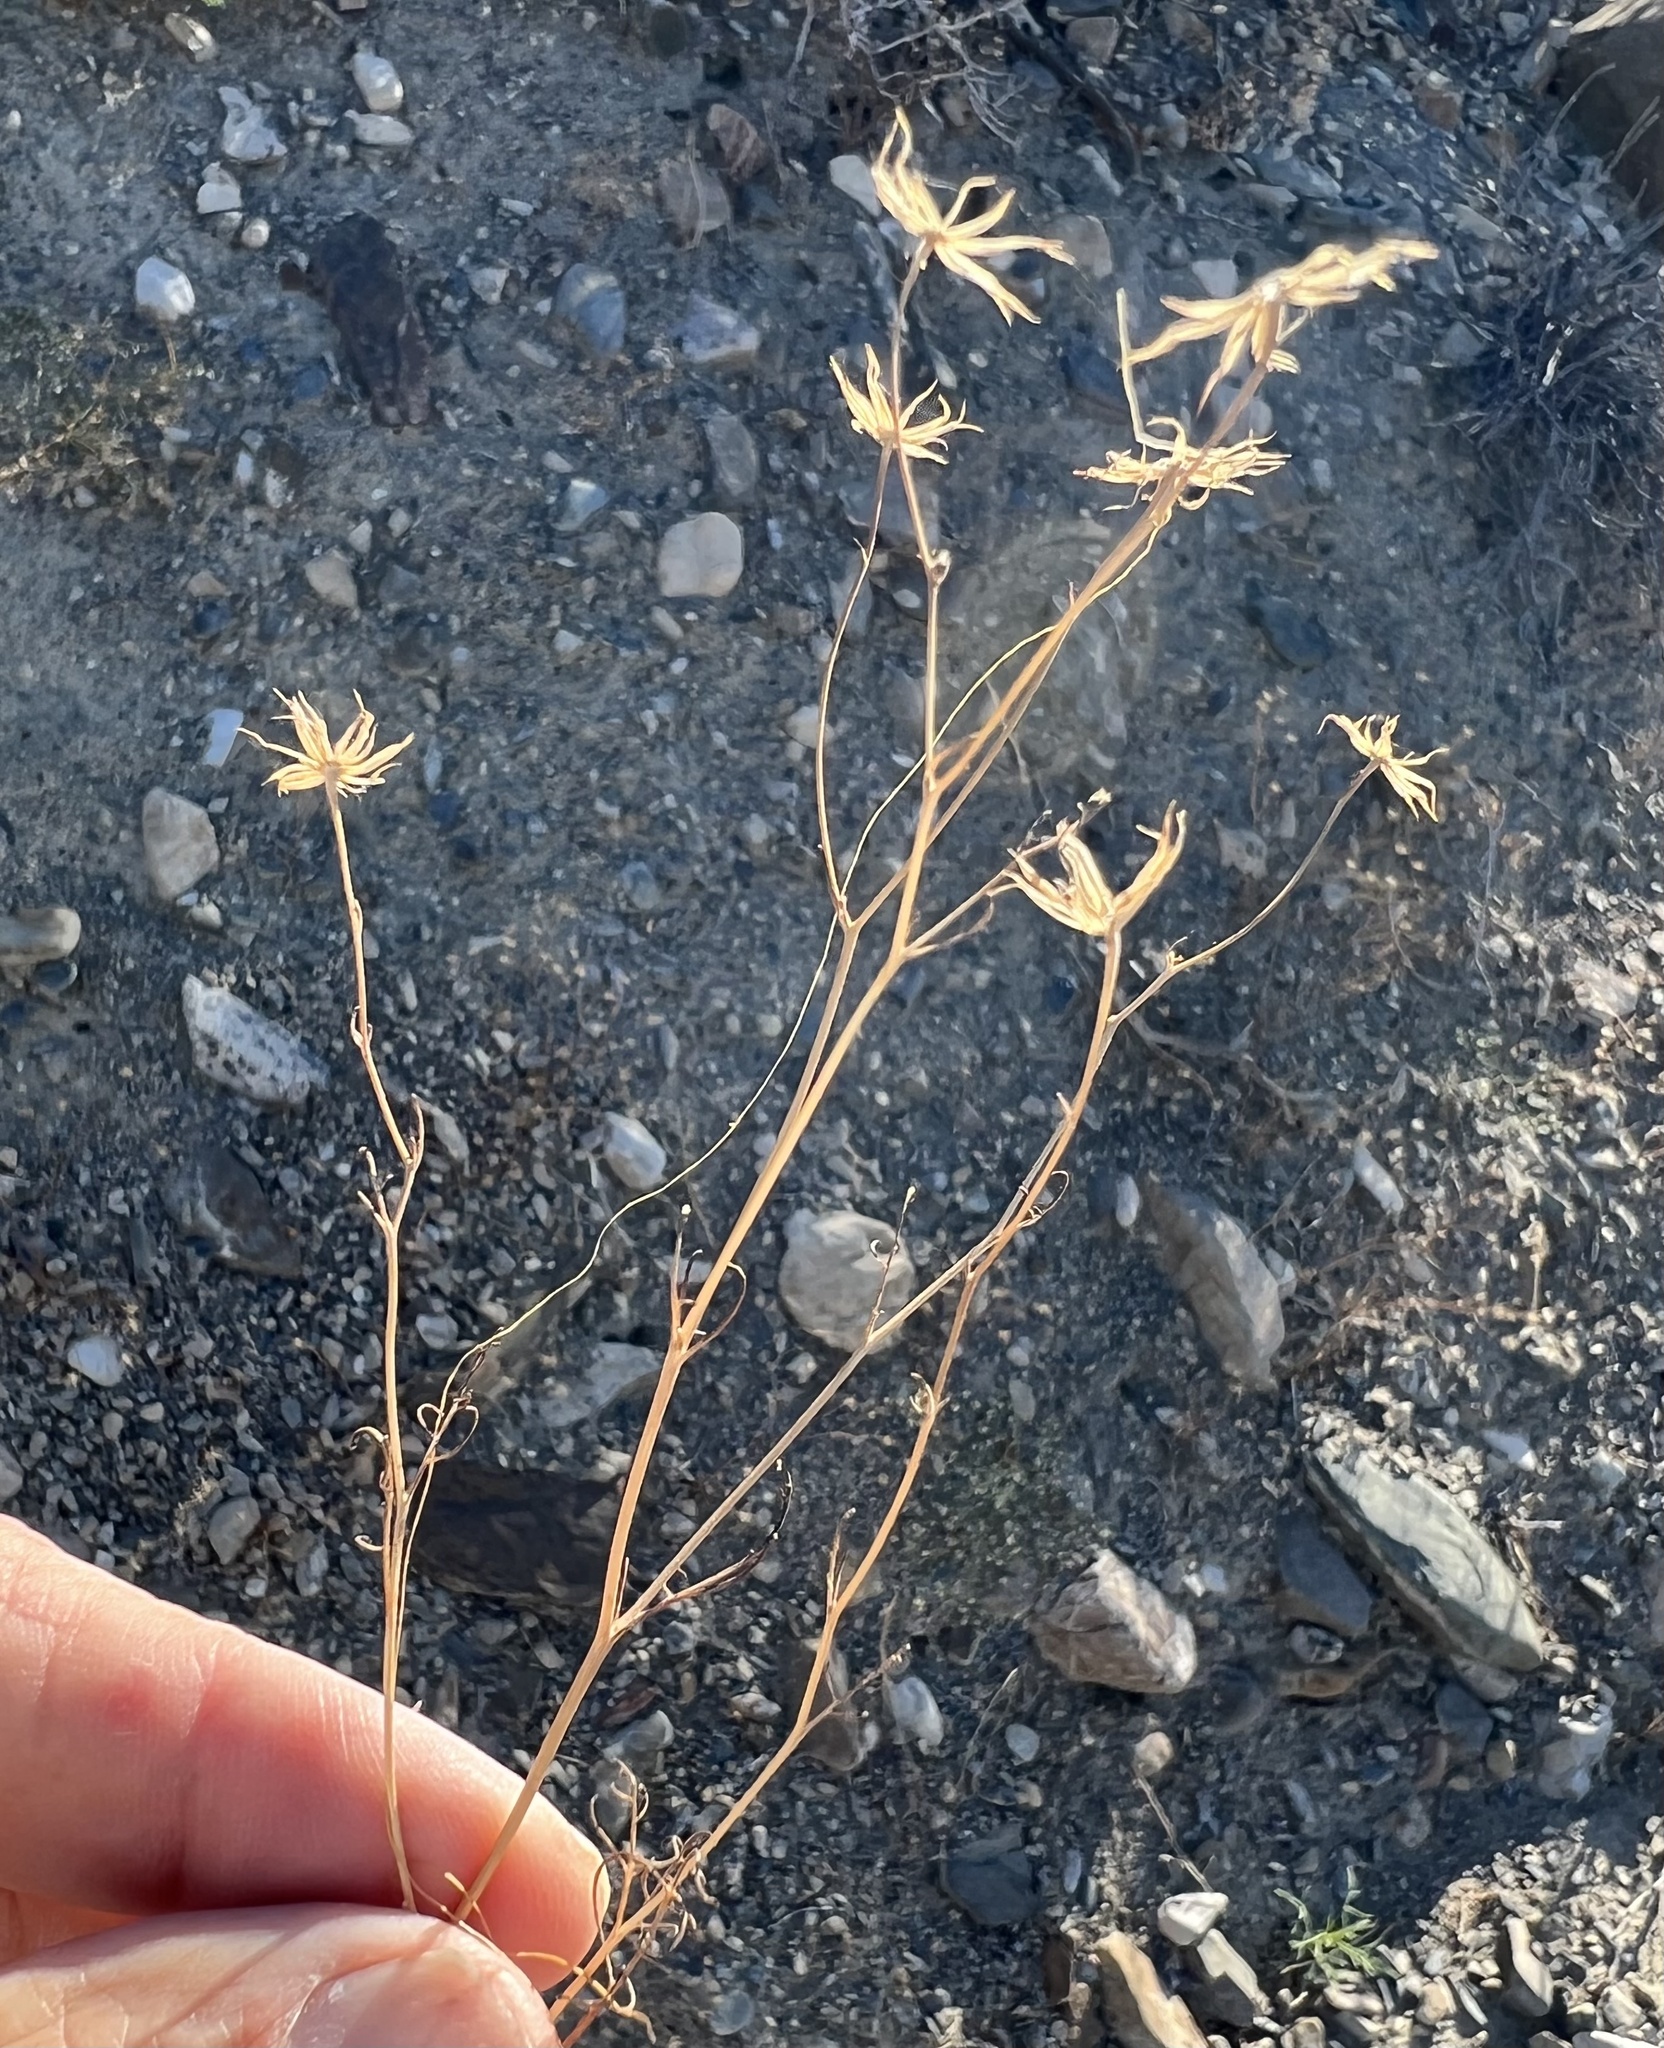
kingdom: Plantae
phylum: Tracheophyta
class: Magnoliopsida
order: Asterales
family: Asteraceae
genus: Chaenactis
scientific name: Chaenactis carphoclinia
